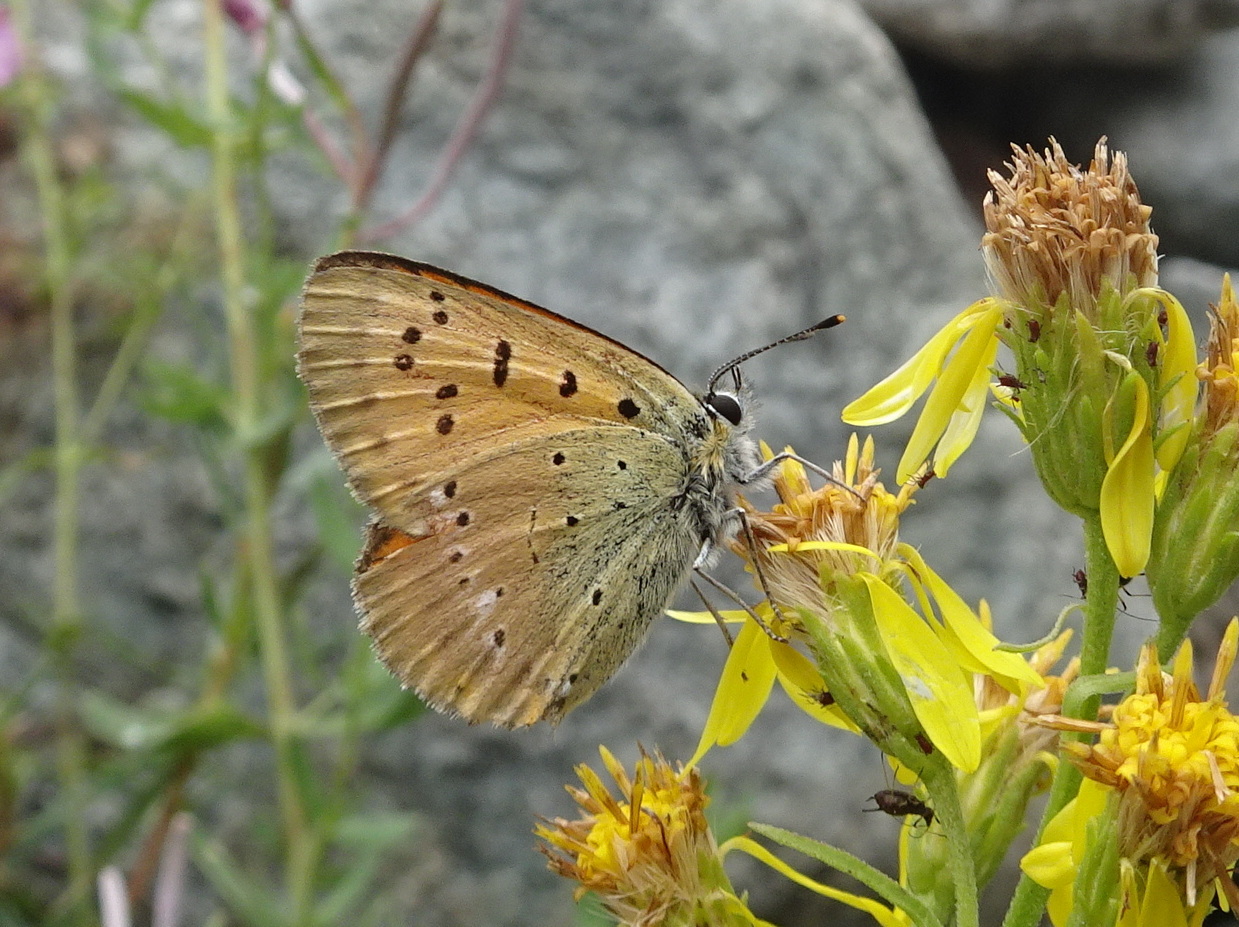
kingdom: Animalia
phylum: Arthropoda
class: Insecta
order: Lepidoptera
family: Lycaenidae
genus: Lycaena
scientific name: Lycaena virgaureae
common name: Scarce copper
